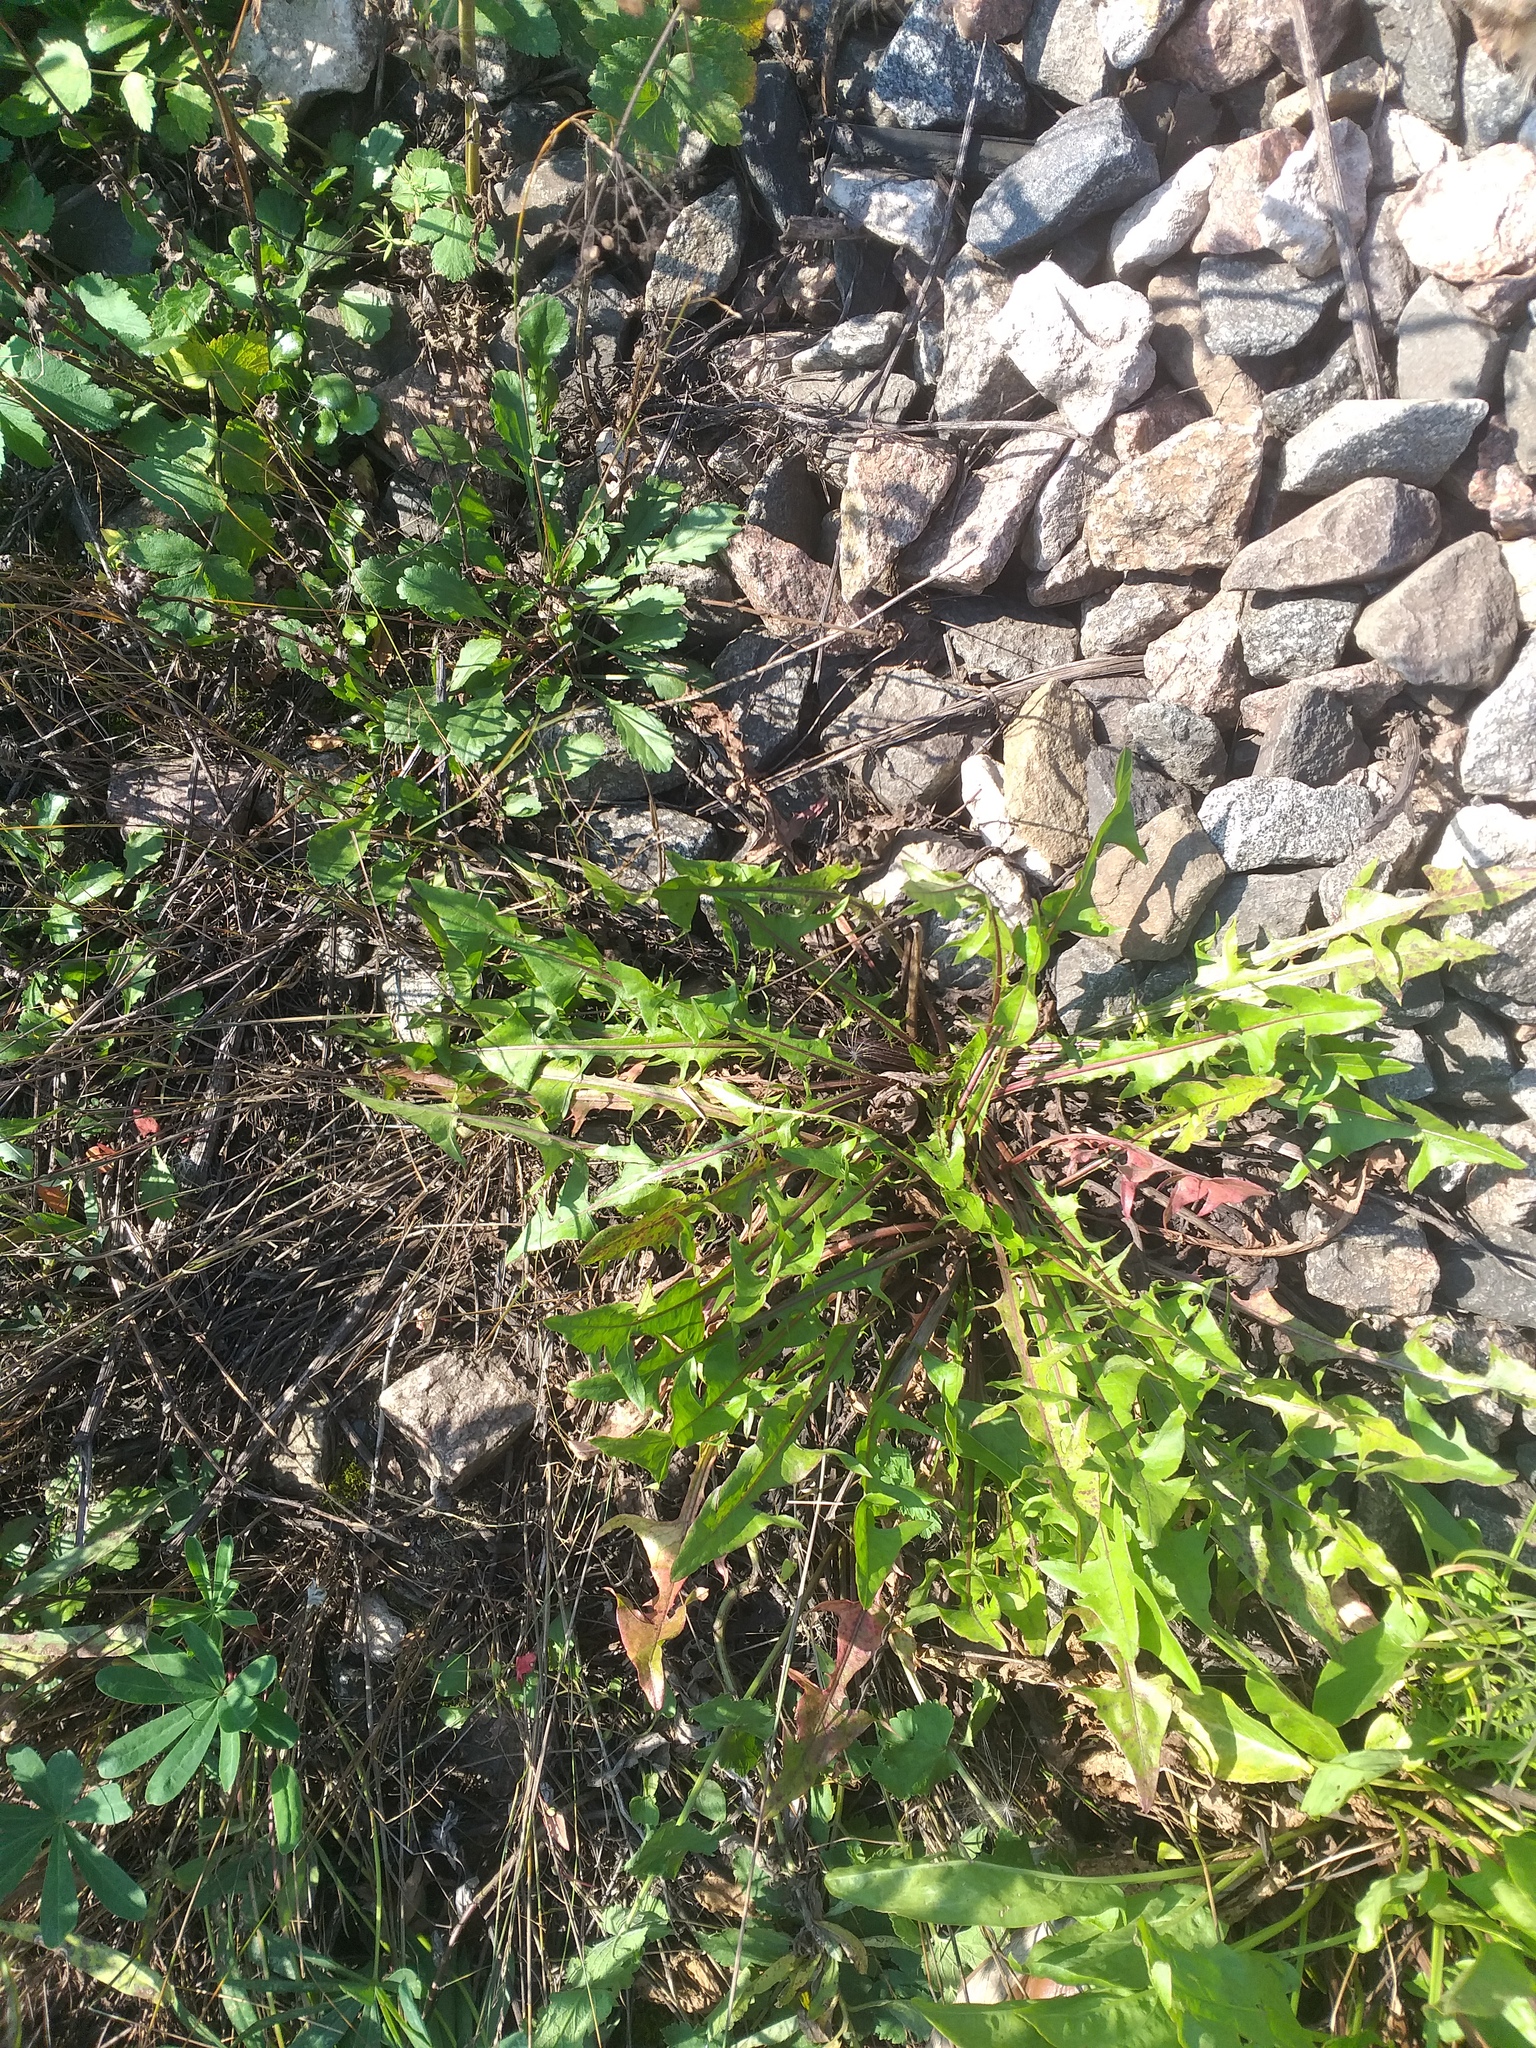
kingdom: Plantae
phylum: Tracheophyta
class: Magnoliopsida
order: Asterales
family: Asteraceae
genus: Taraxacum
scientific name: Taraxacum officinale
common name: Common dandelion
